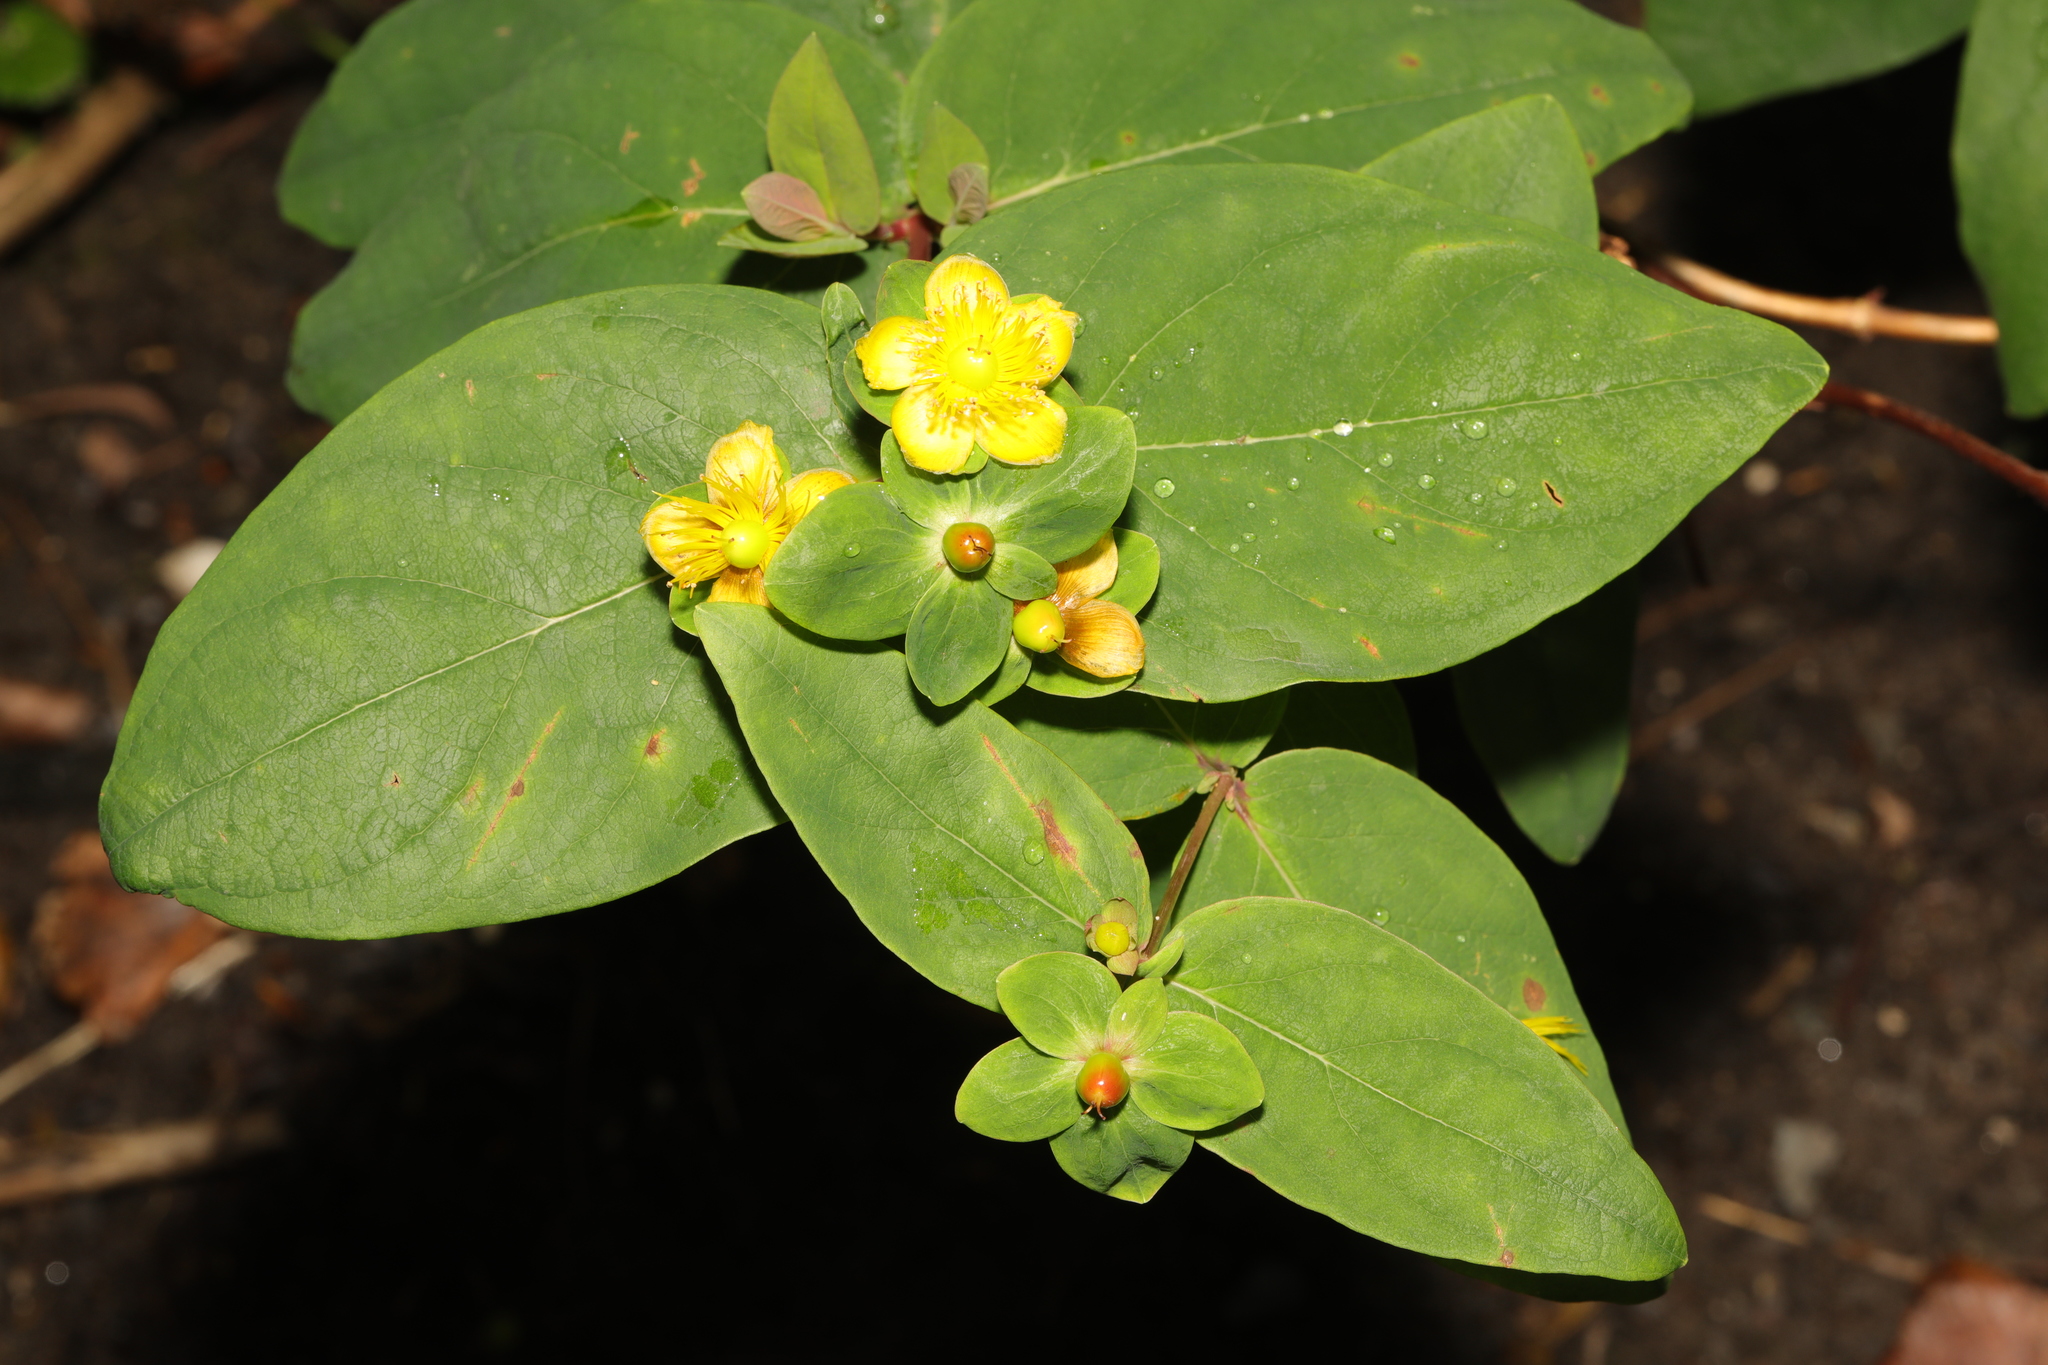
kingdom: Plantae
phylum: Tracheophyta
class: Magnoliopsida
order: Malpighiales
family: Hypericaceae
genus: Hypericum
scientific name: Hypericum androsaemum
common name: Sweet-amber
